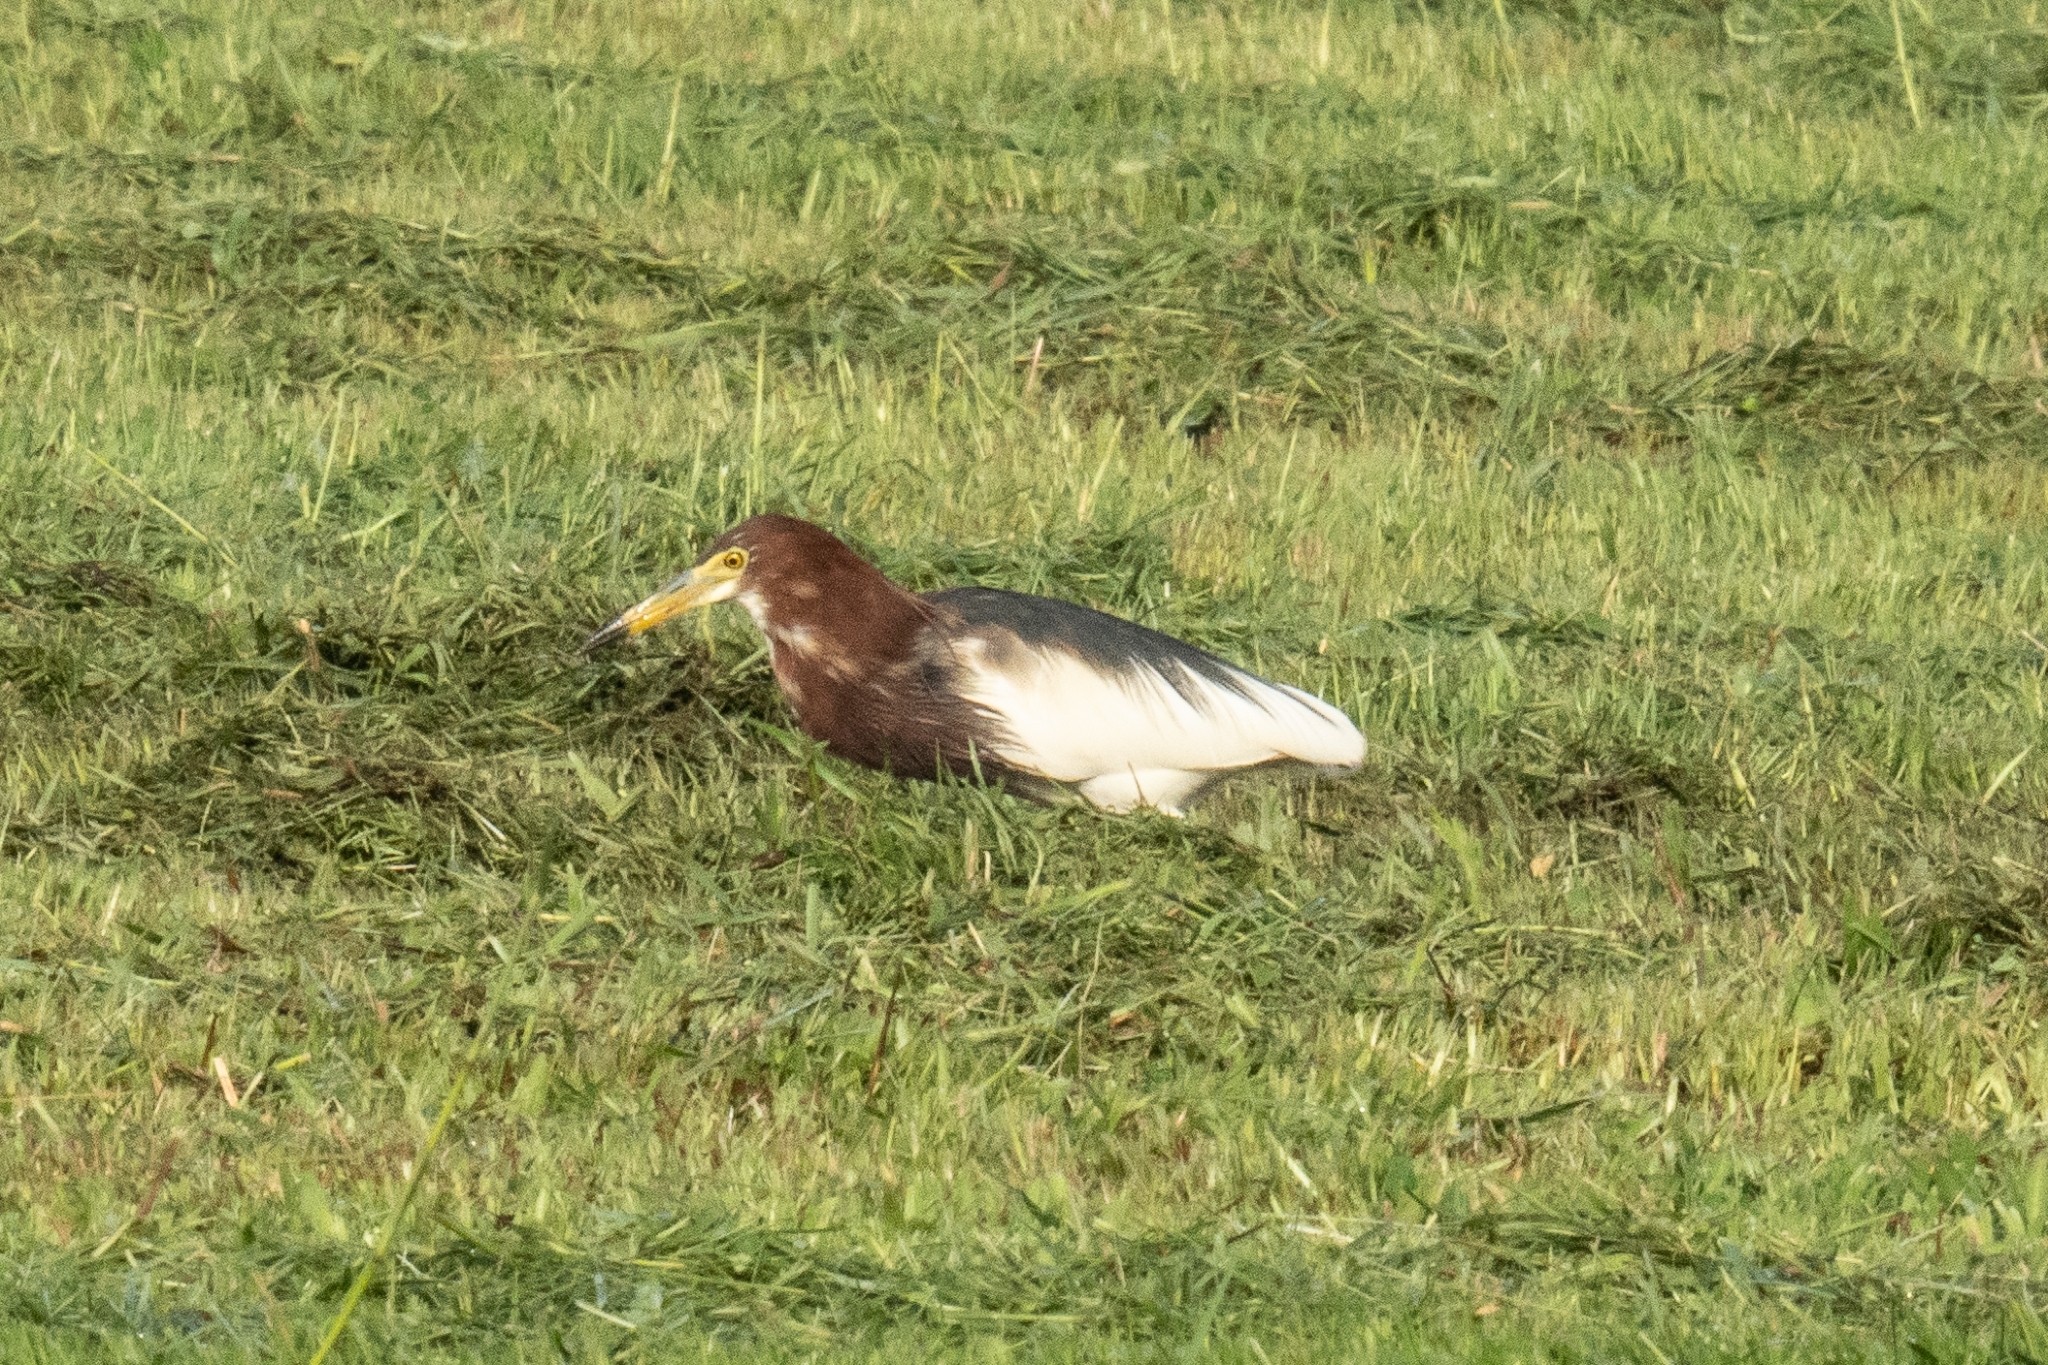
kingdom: Animalia
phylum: Chordata
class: Aves
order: Pelecaniformes
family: Ardeidae
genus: Ardeola
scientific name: Ardeola bacchus
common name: Chinese pond heron
